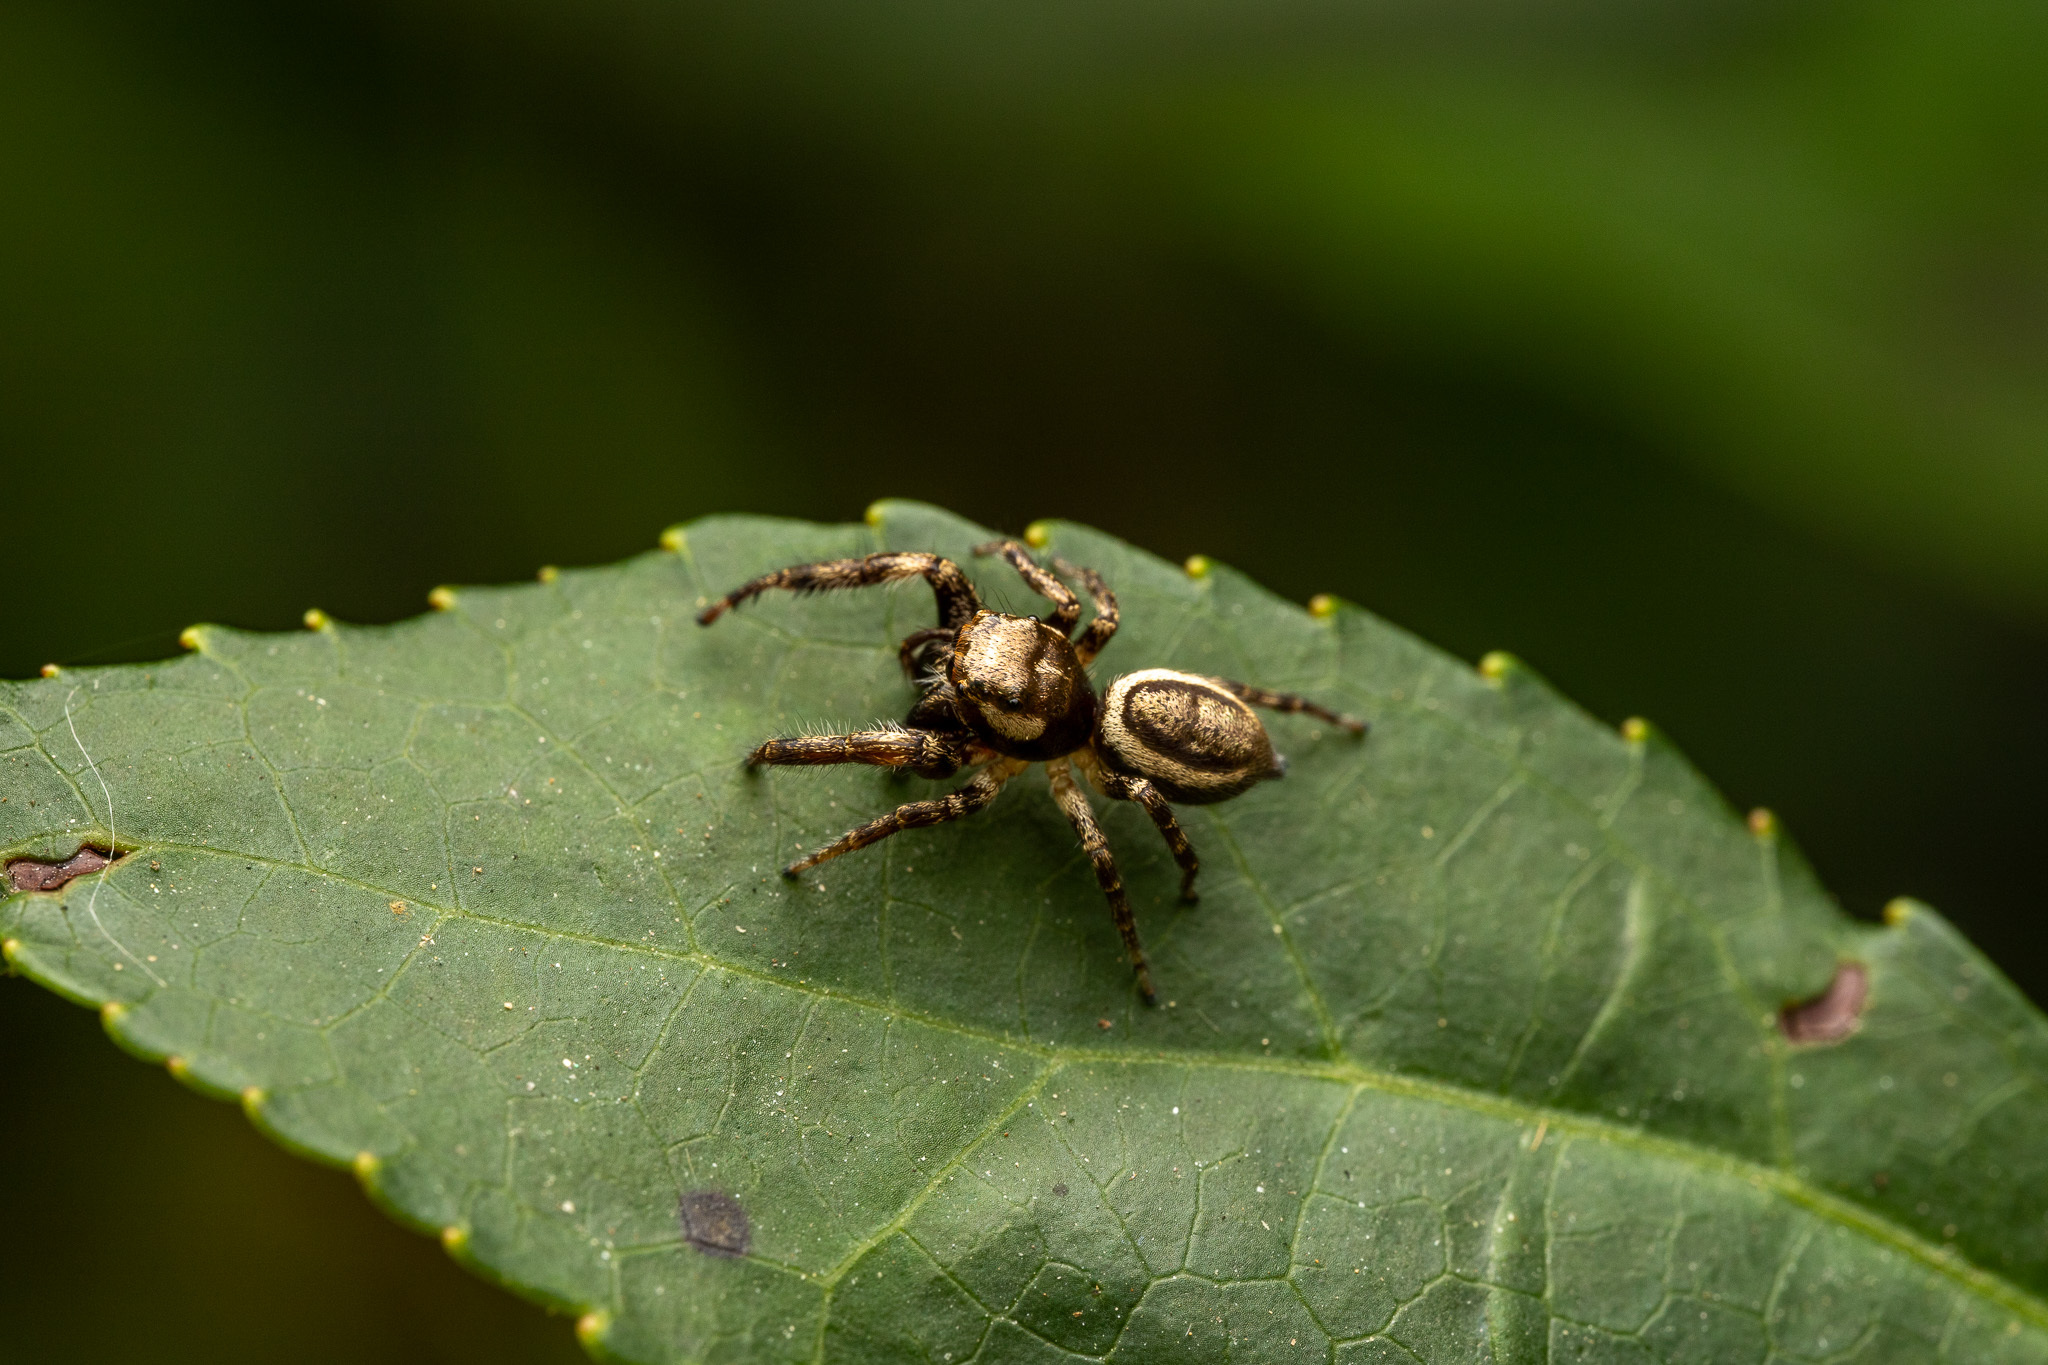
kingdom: Animalia
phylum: Arthropoda
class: Arachnida
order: Araneae
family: Salticidae
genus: Eris
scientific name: Eris militaris
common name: Bronze jumper
